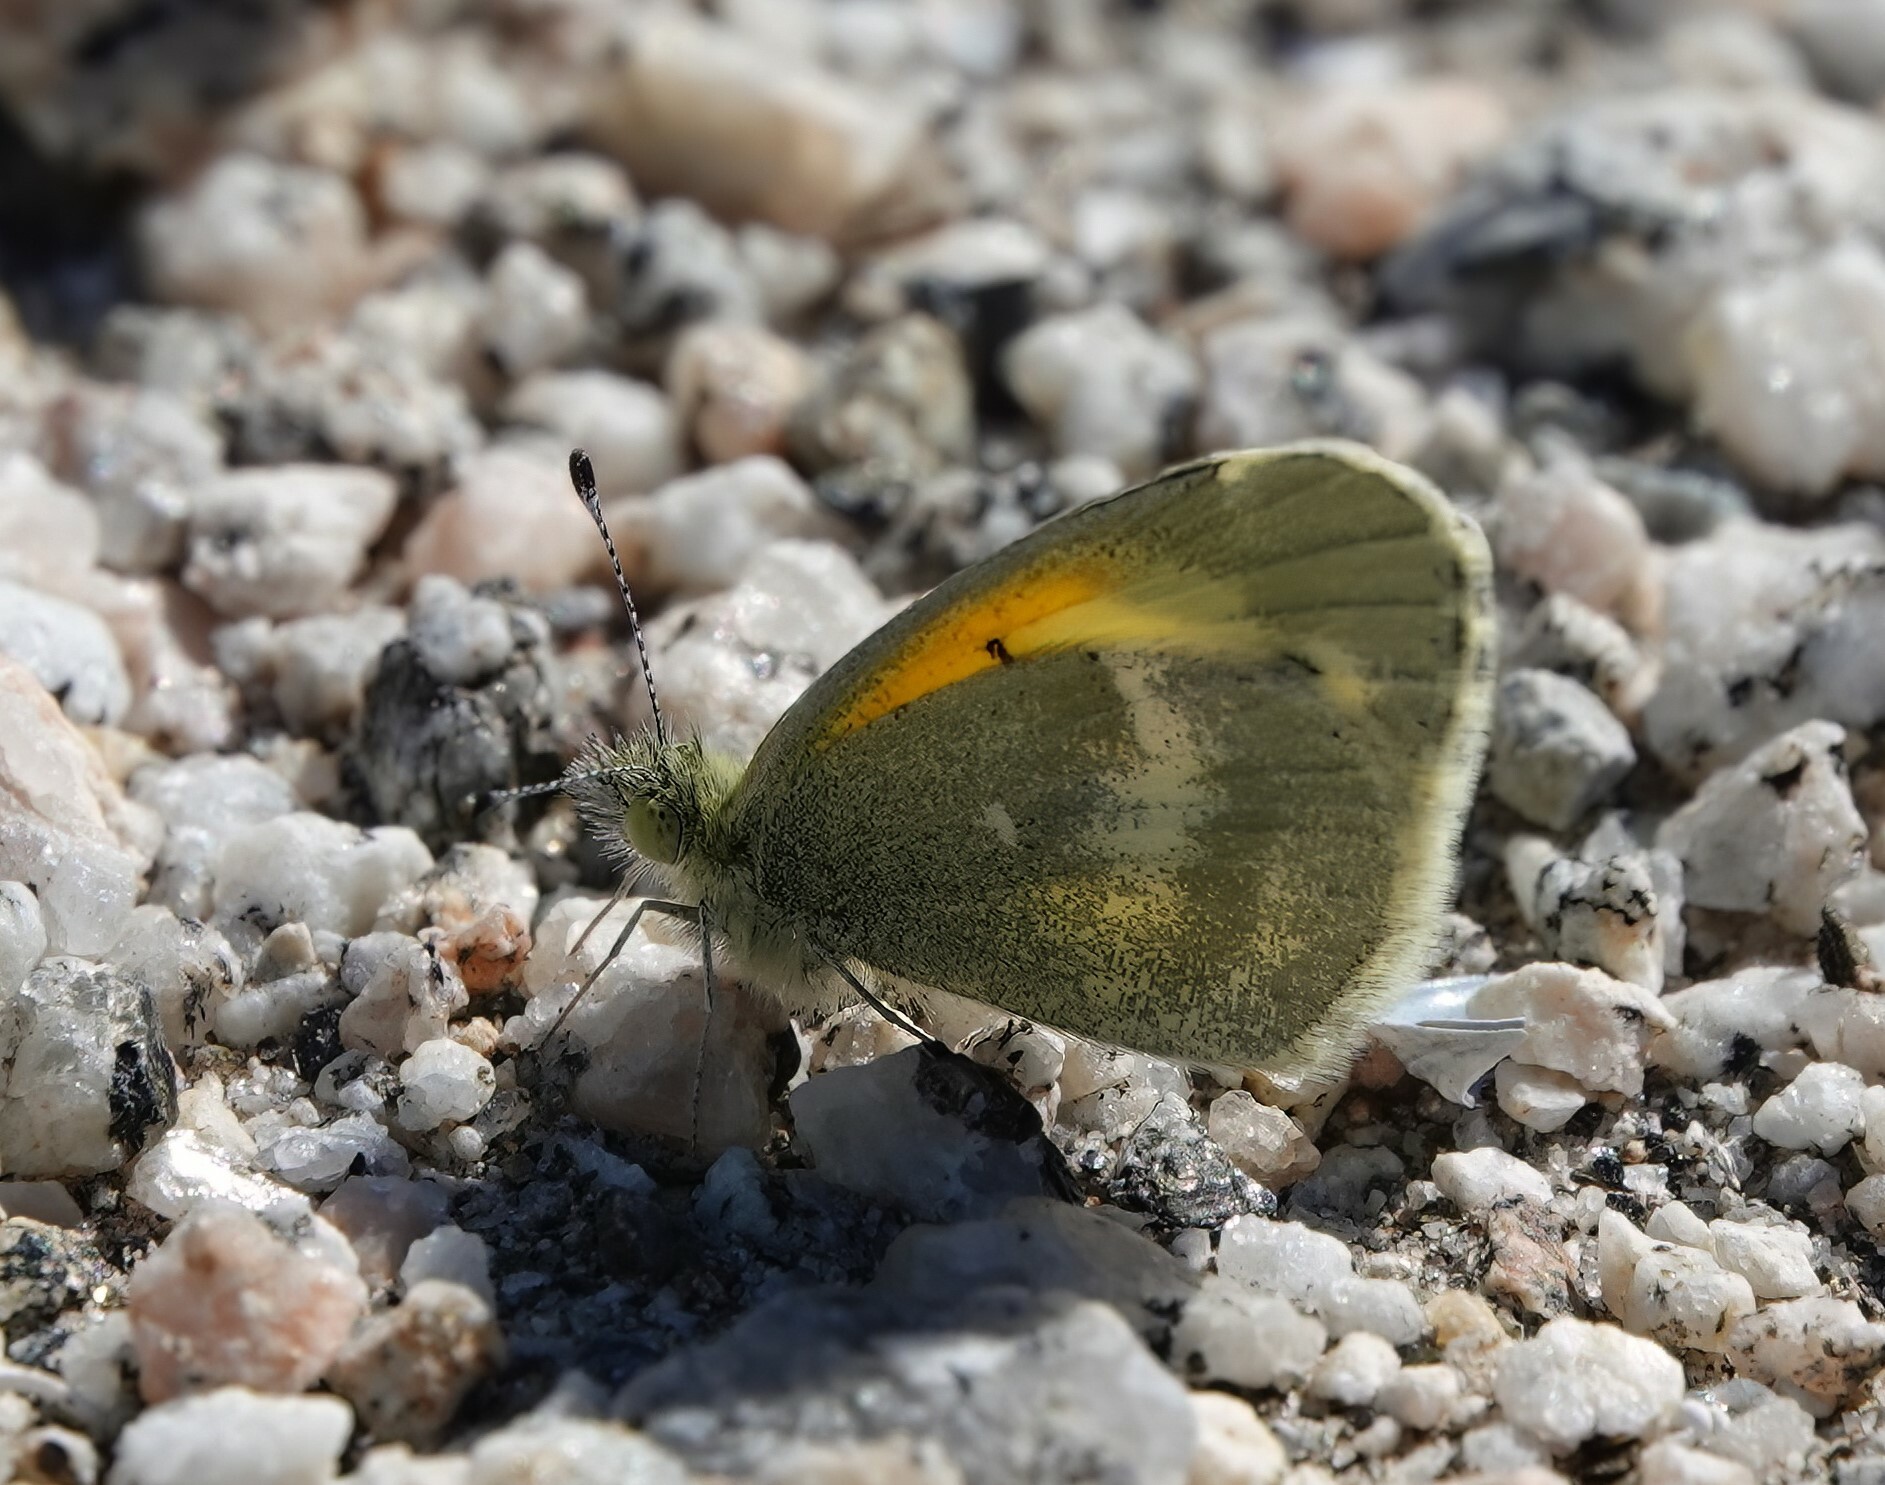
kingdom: Animalia
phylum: Arthropoda
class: Insecta
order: Lepidoptera
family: Pieridae
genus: Nathalis
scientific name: Nathalis iole
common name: Dainty sulphur
